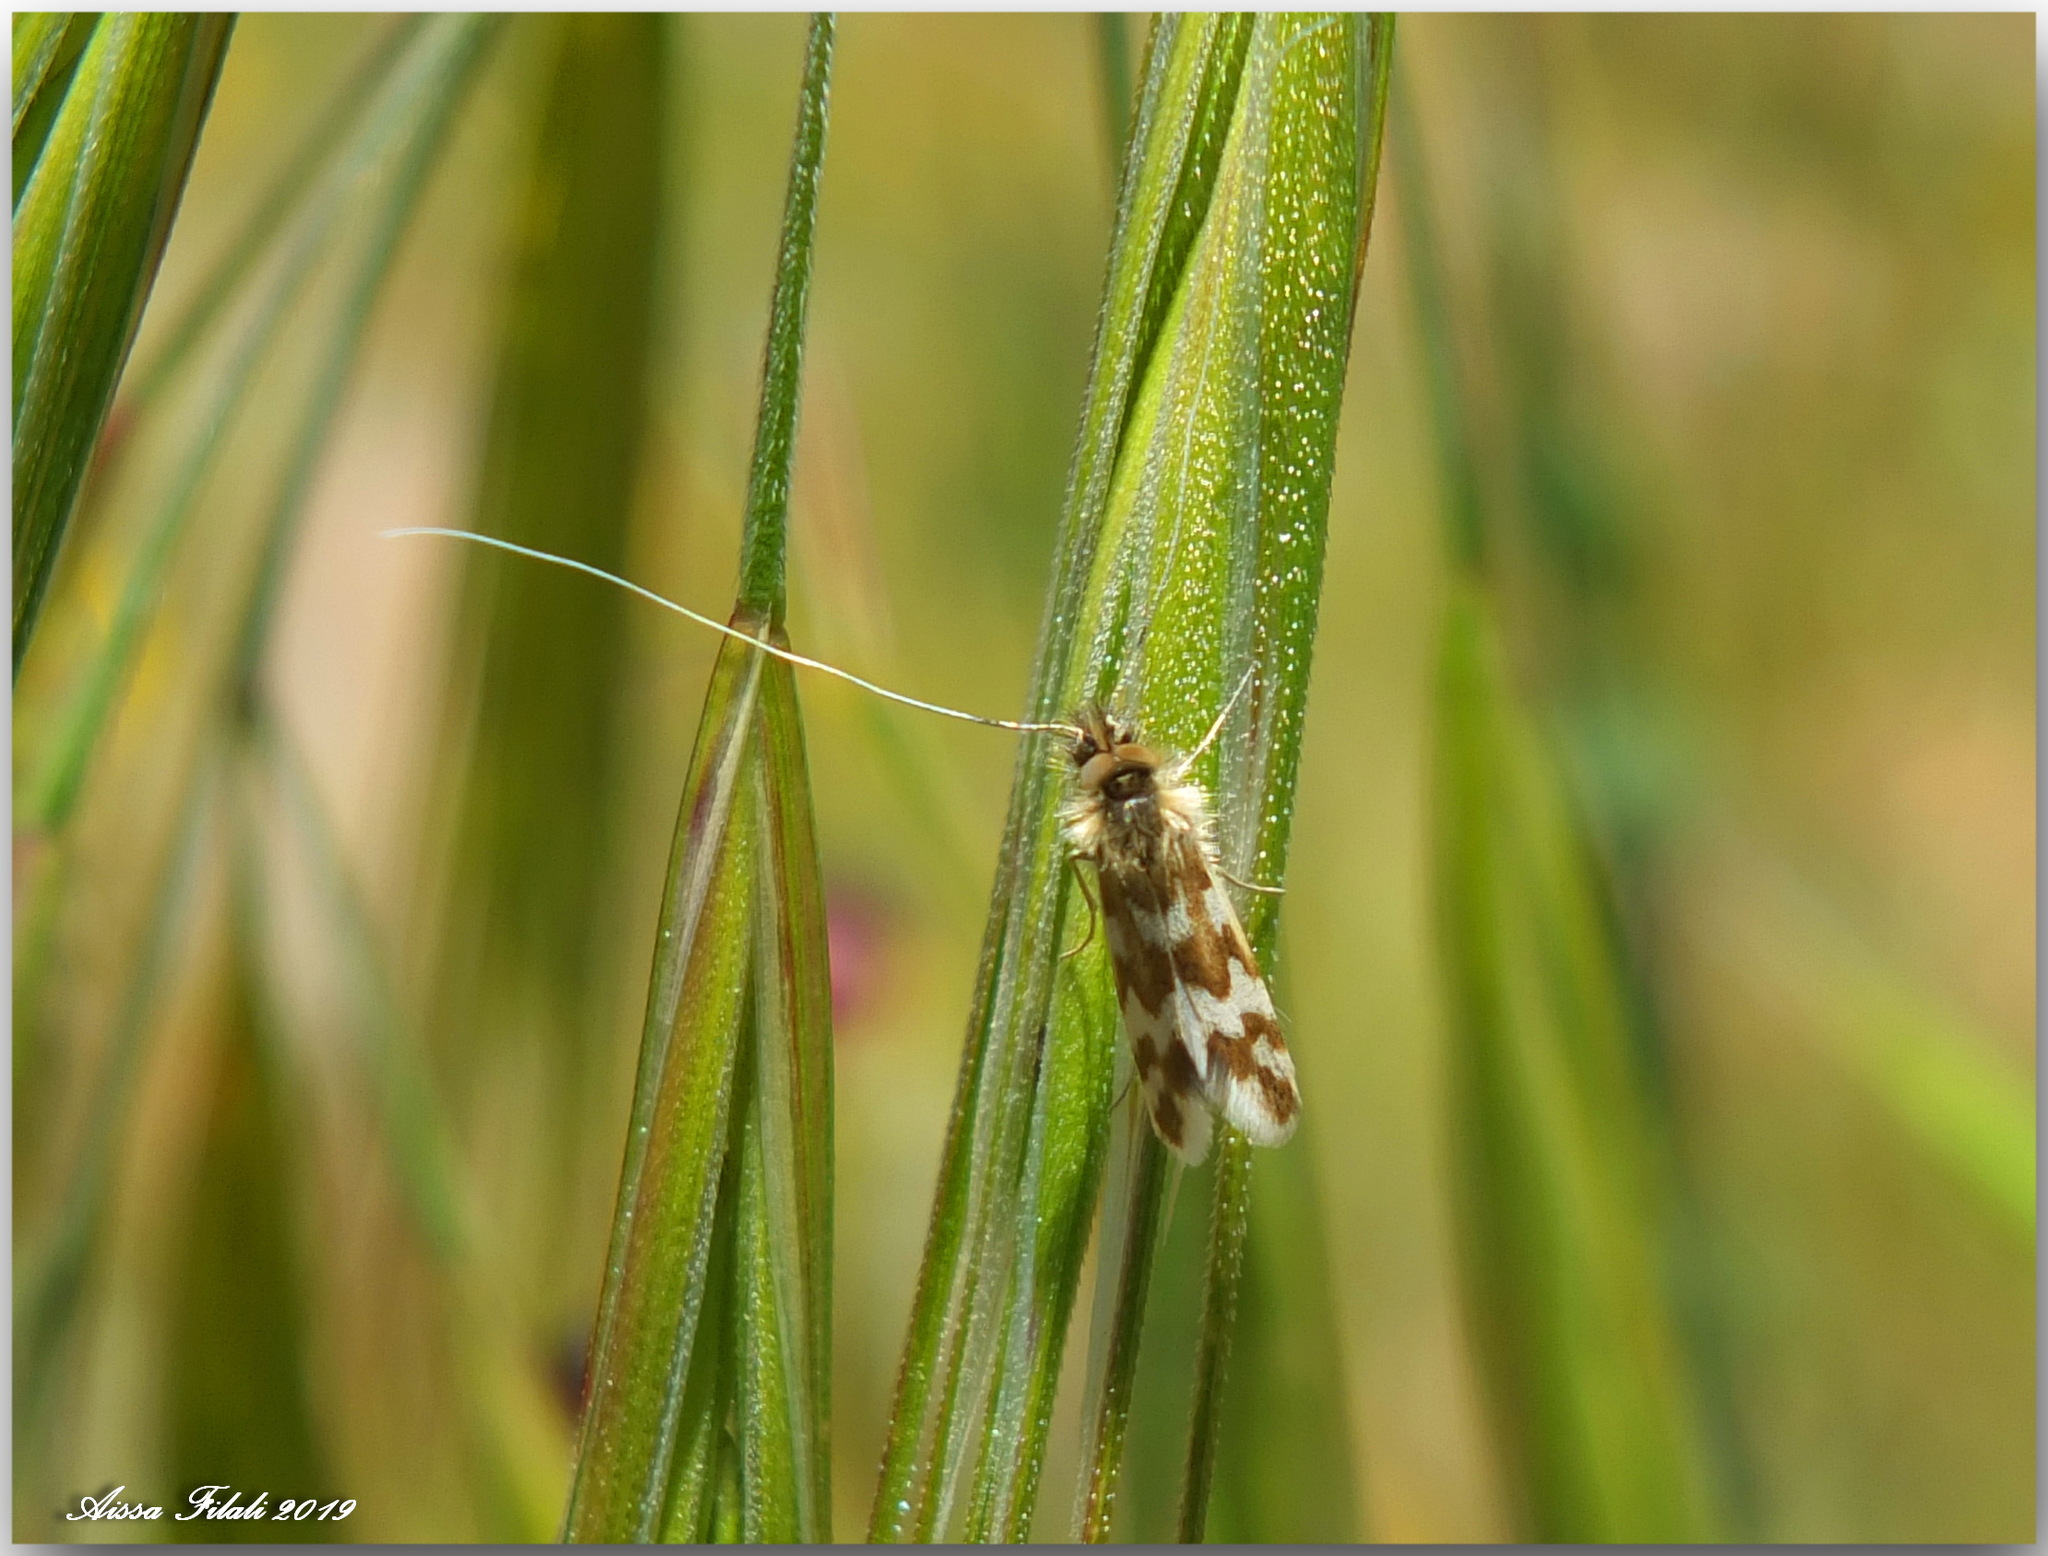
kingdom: Animalia
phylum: Arthropoda
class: Insecta
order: Lepidoptera
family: Adelidae
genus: Trichofrons
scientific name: Trichofrons pantherella
